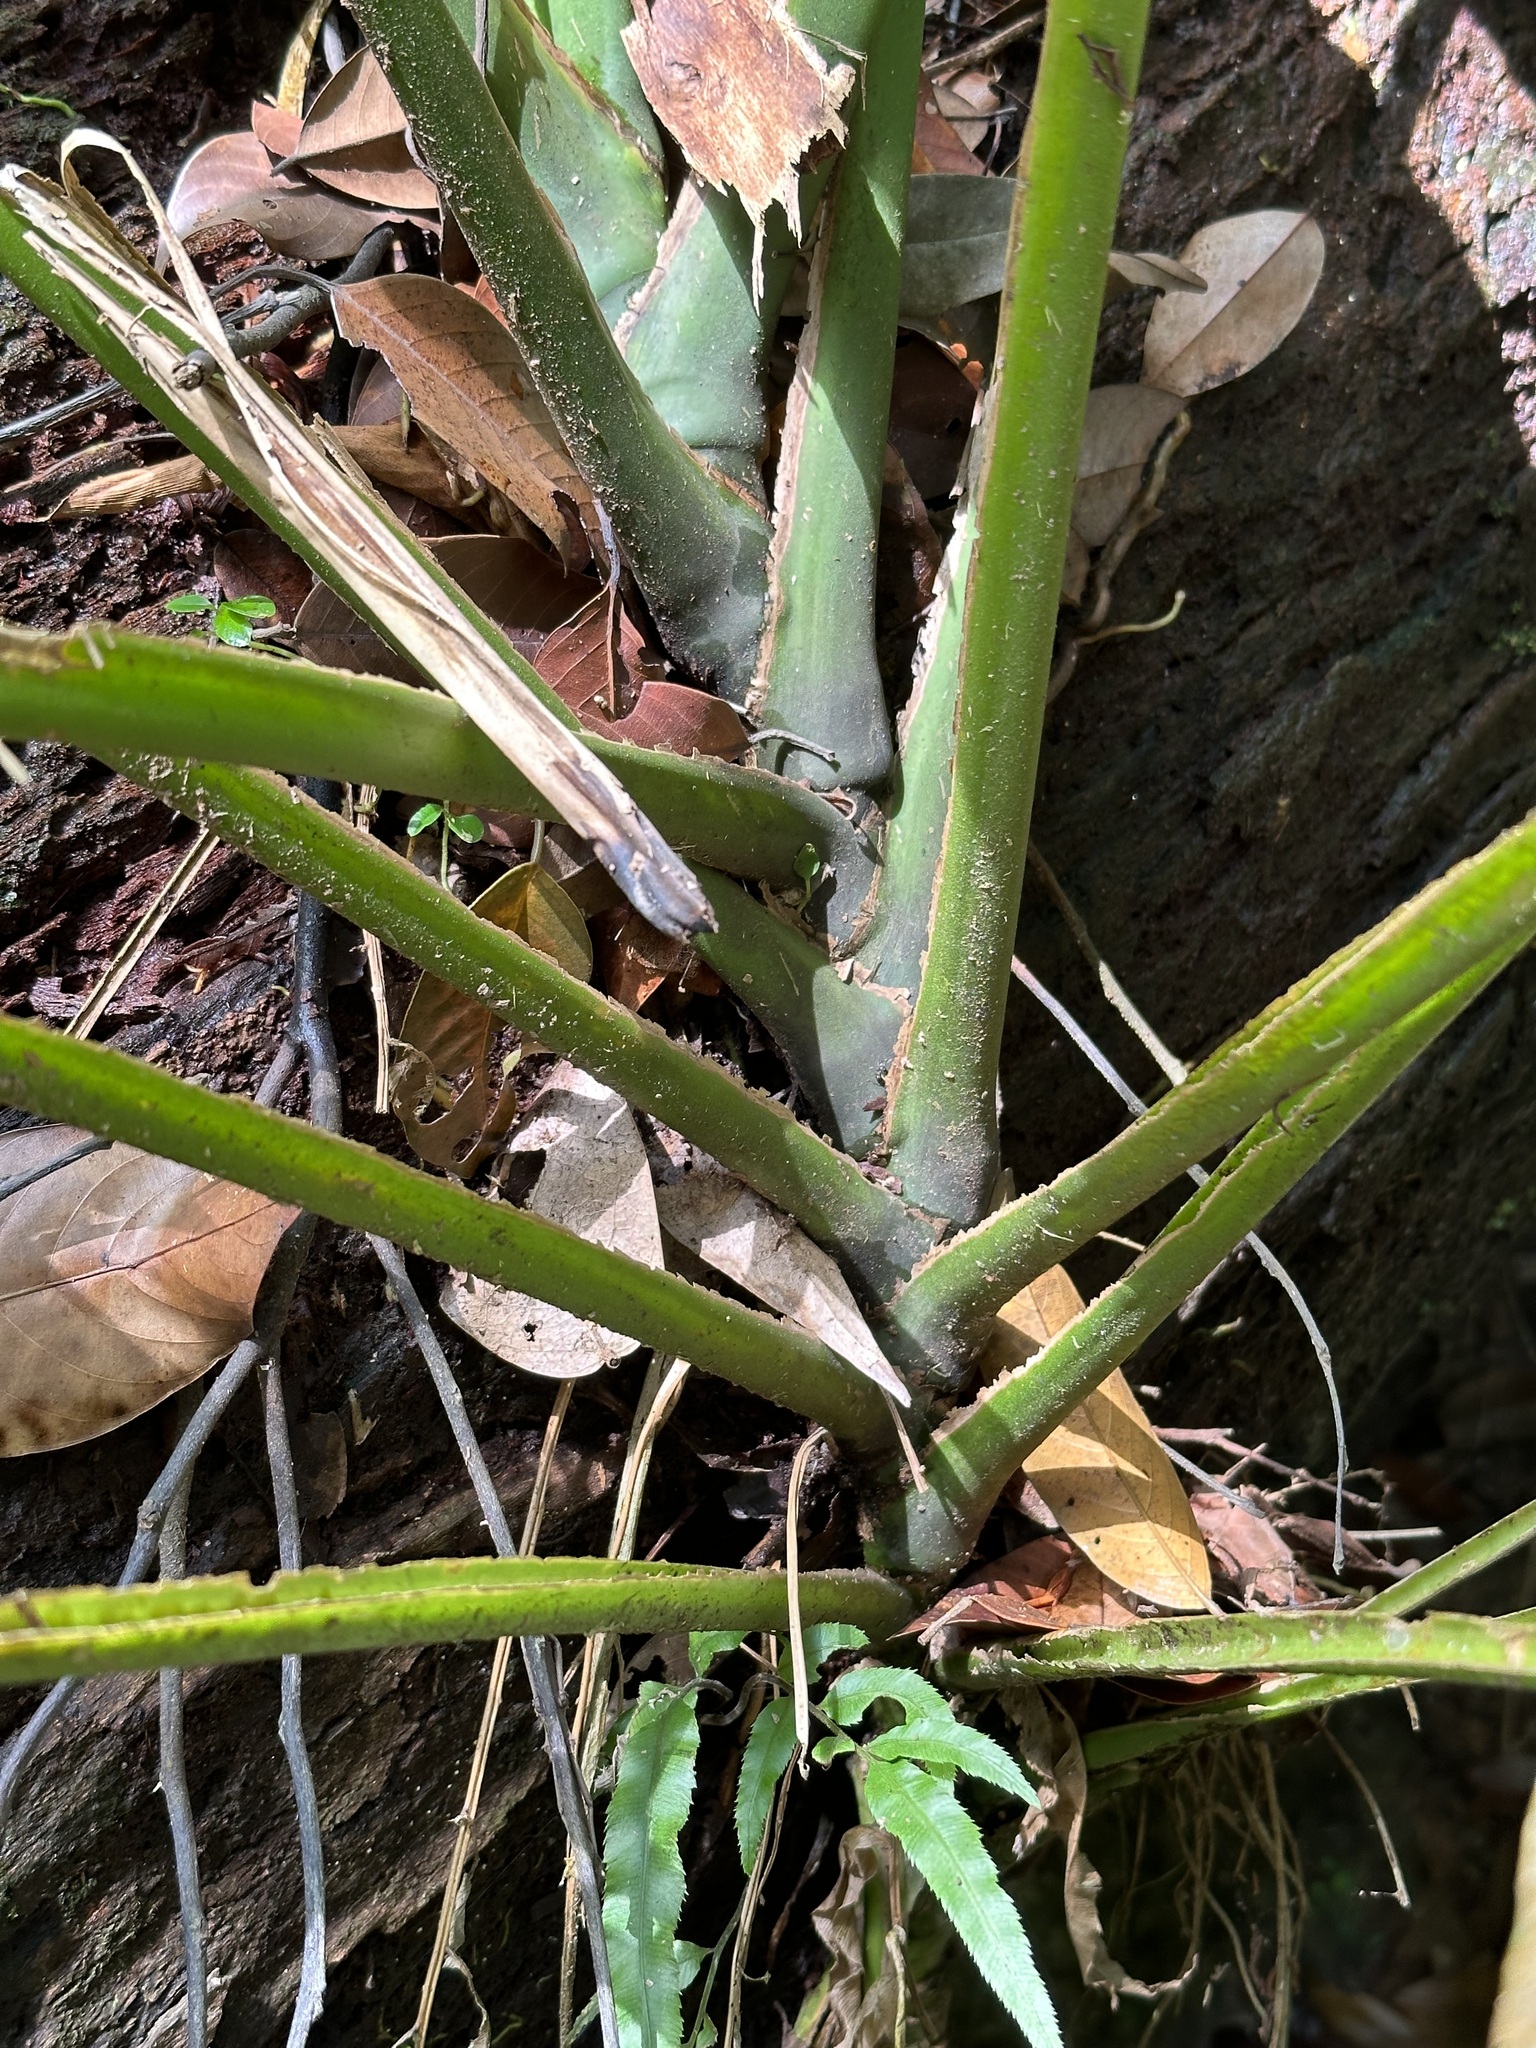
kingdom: Plantae
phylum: Tracheophyta
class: Liliopsida
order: Alismatales
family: Araceae
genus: Epipremnum
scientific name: Epipremnum giganteum
